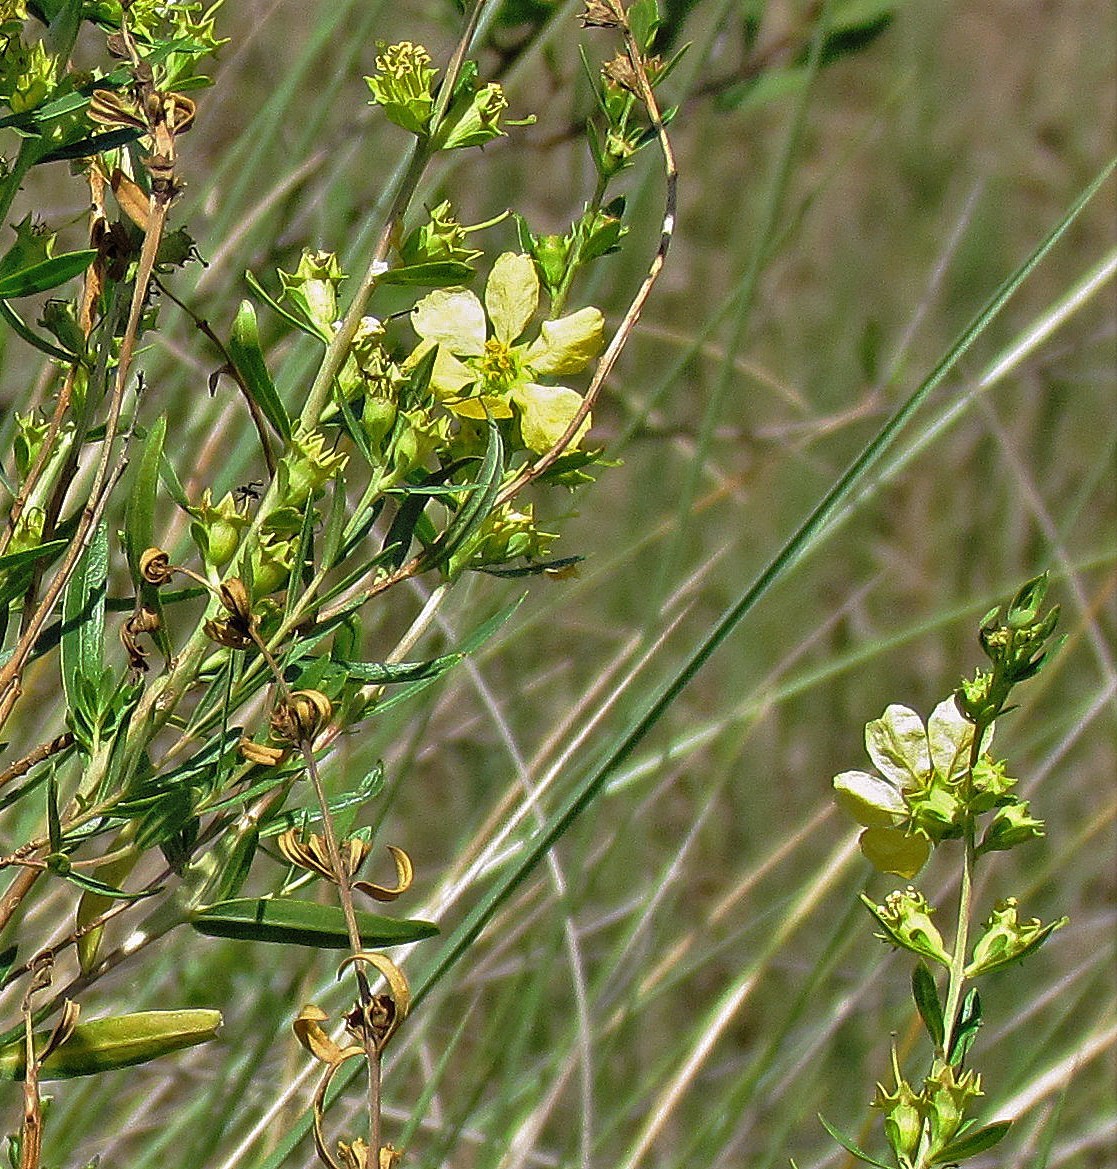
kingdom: Plantae
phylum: Tracheophyta
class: Magnoliopsida
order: Myrtales
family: Lythraceae
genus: Heimia
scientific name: Heimia salicifolia
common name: Willow-leaf heimia
